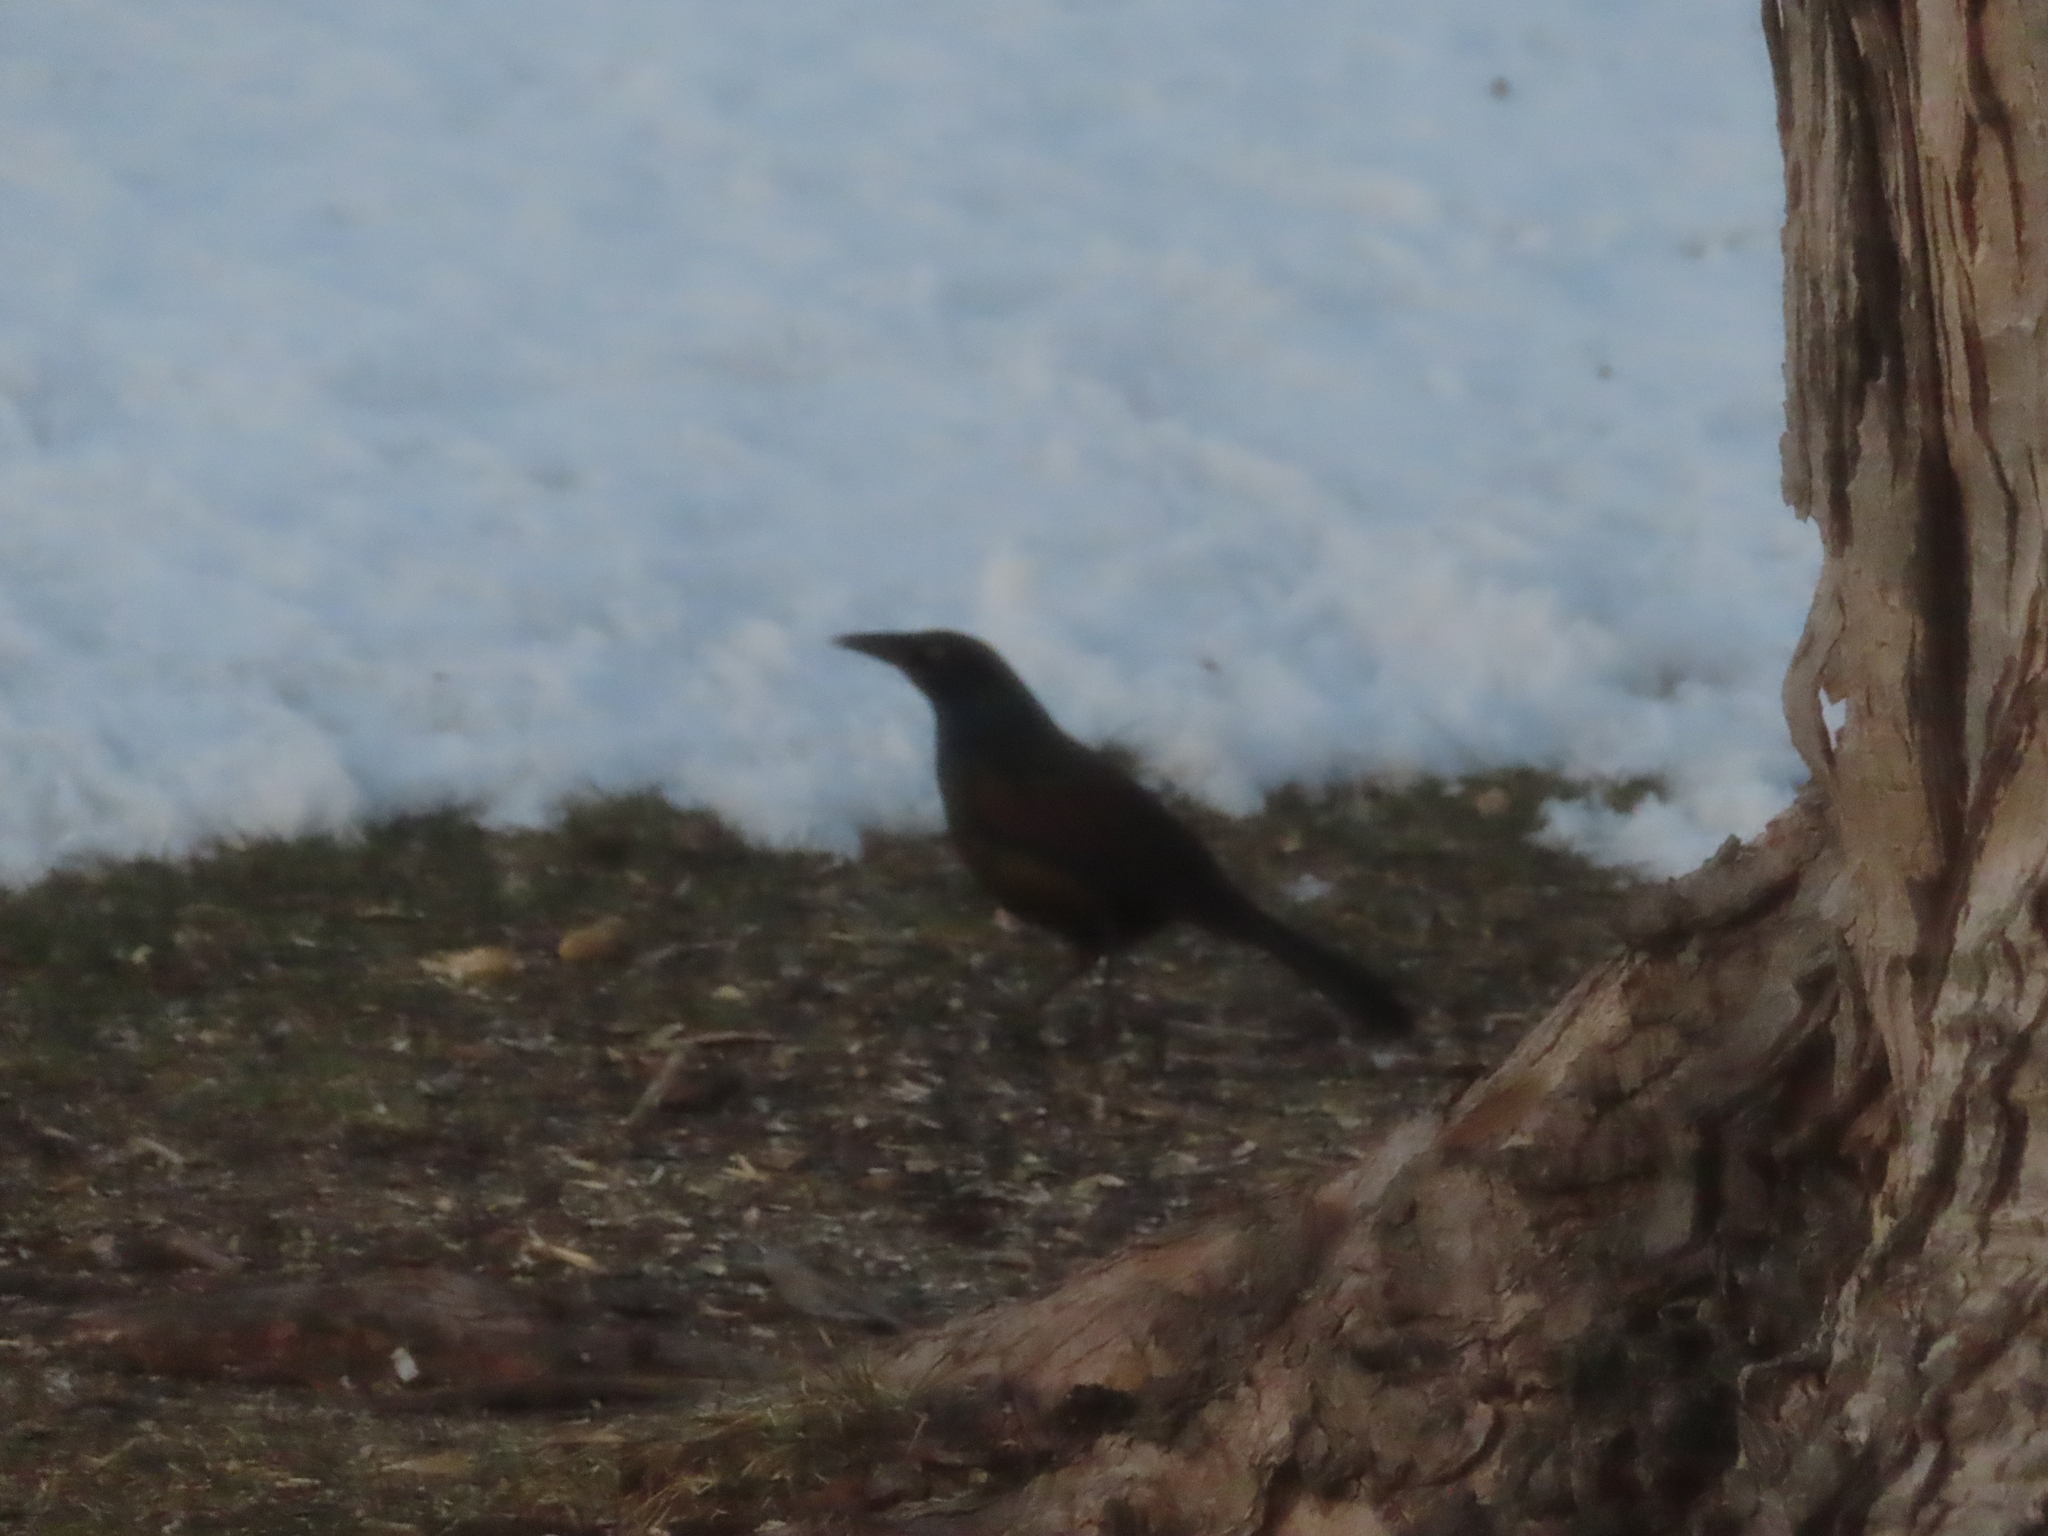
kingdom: Animalia
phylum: Chordata
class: Aves
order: Passeriformes
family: Icteridae
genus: Quiscalus
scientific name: Quiscalus quiscula
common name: Common grackle
